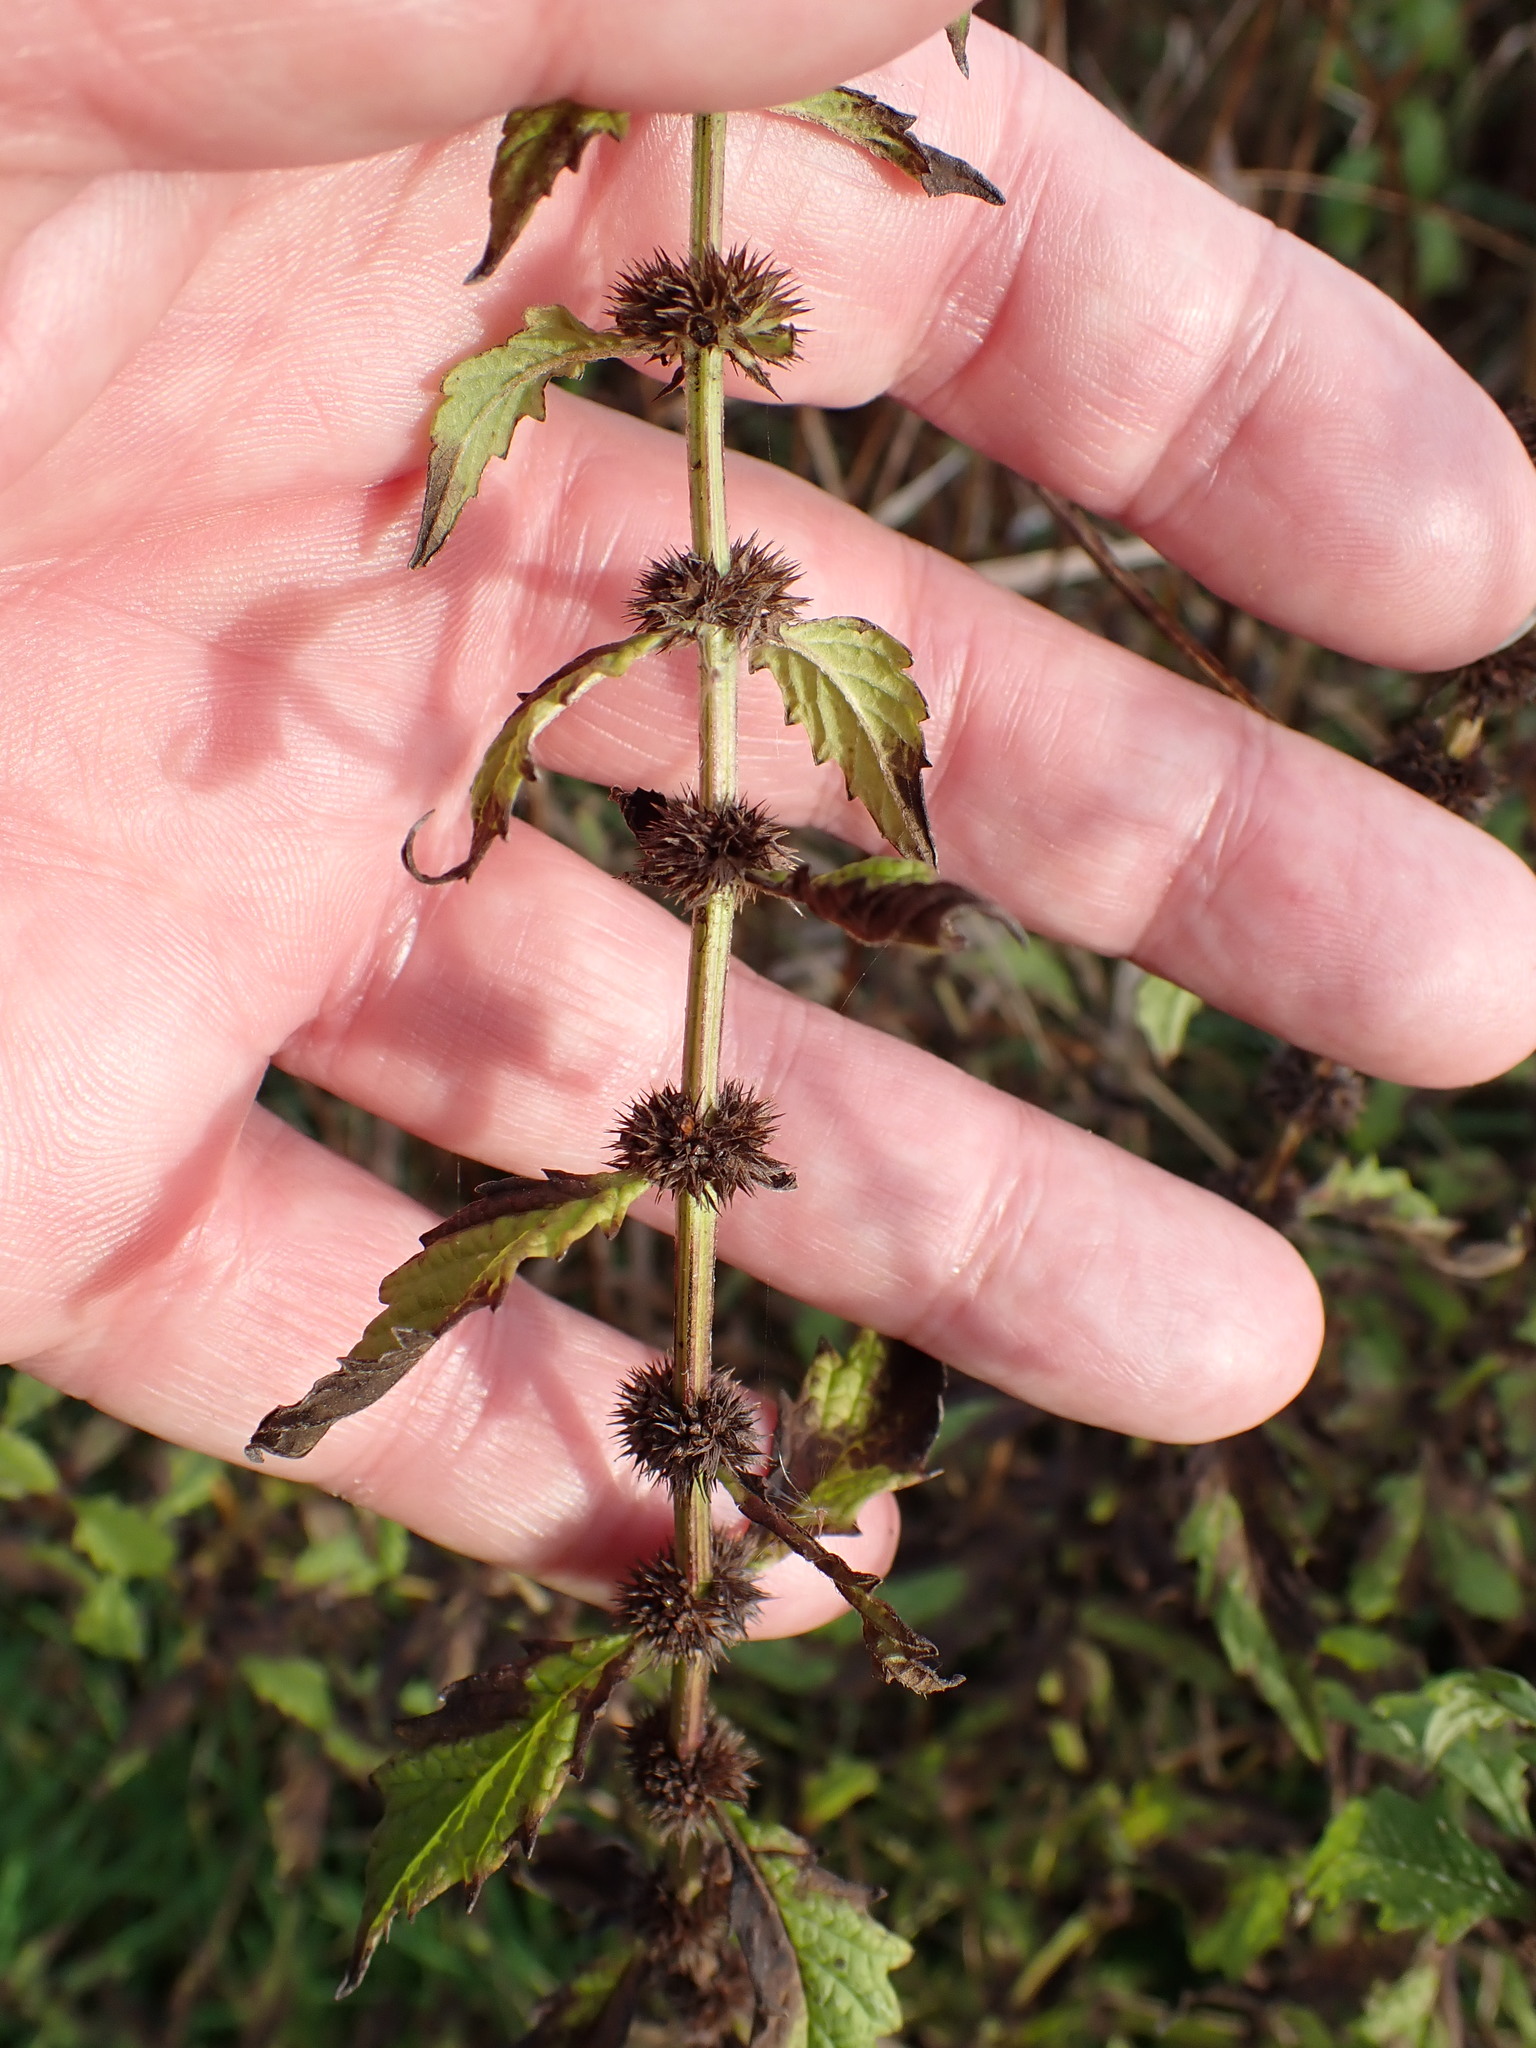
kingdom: Plantae
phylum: Tracheophyta
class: Magnoliopsida
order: Lamiales
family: Lamiaceae
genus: Lycopus
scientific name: Lycopus europaeus
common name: European bugleweed
